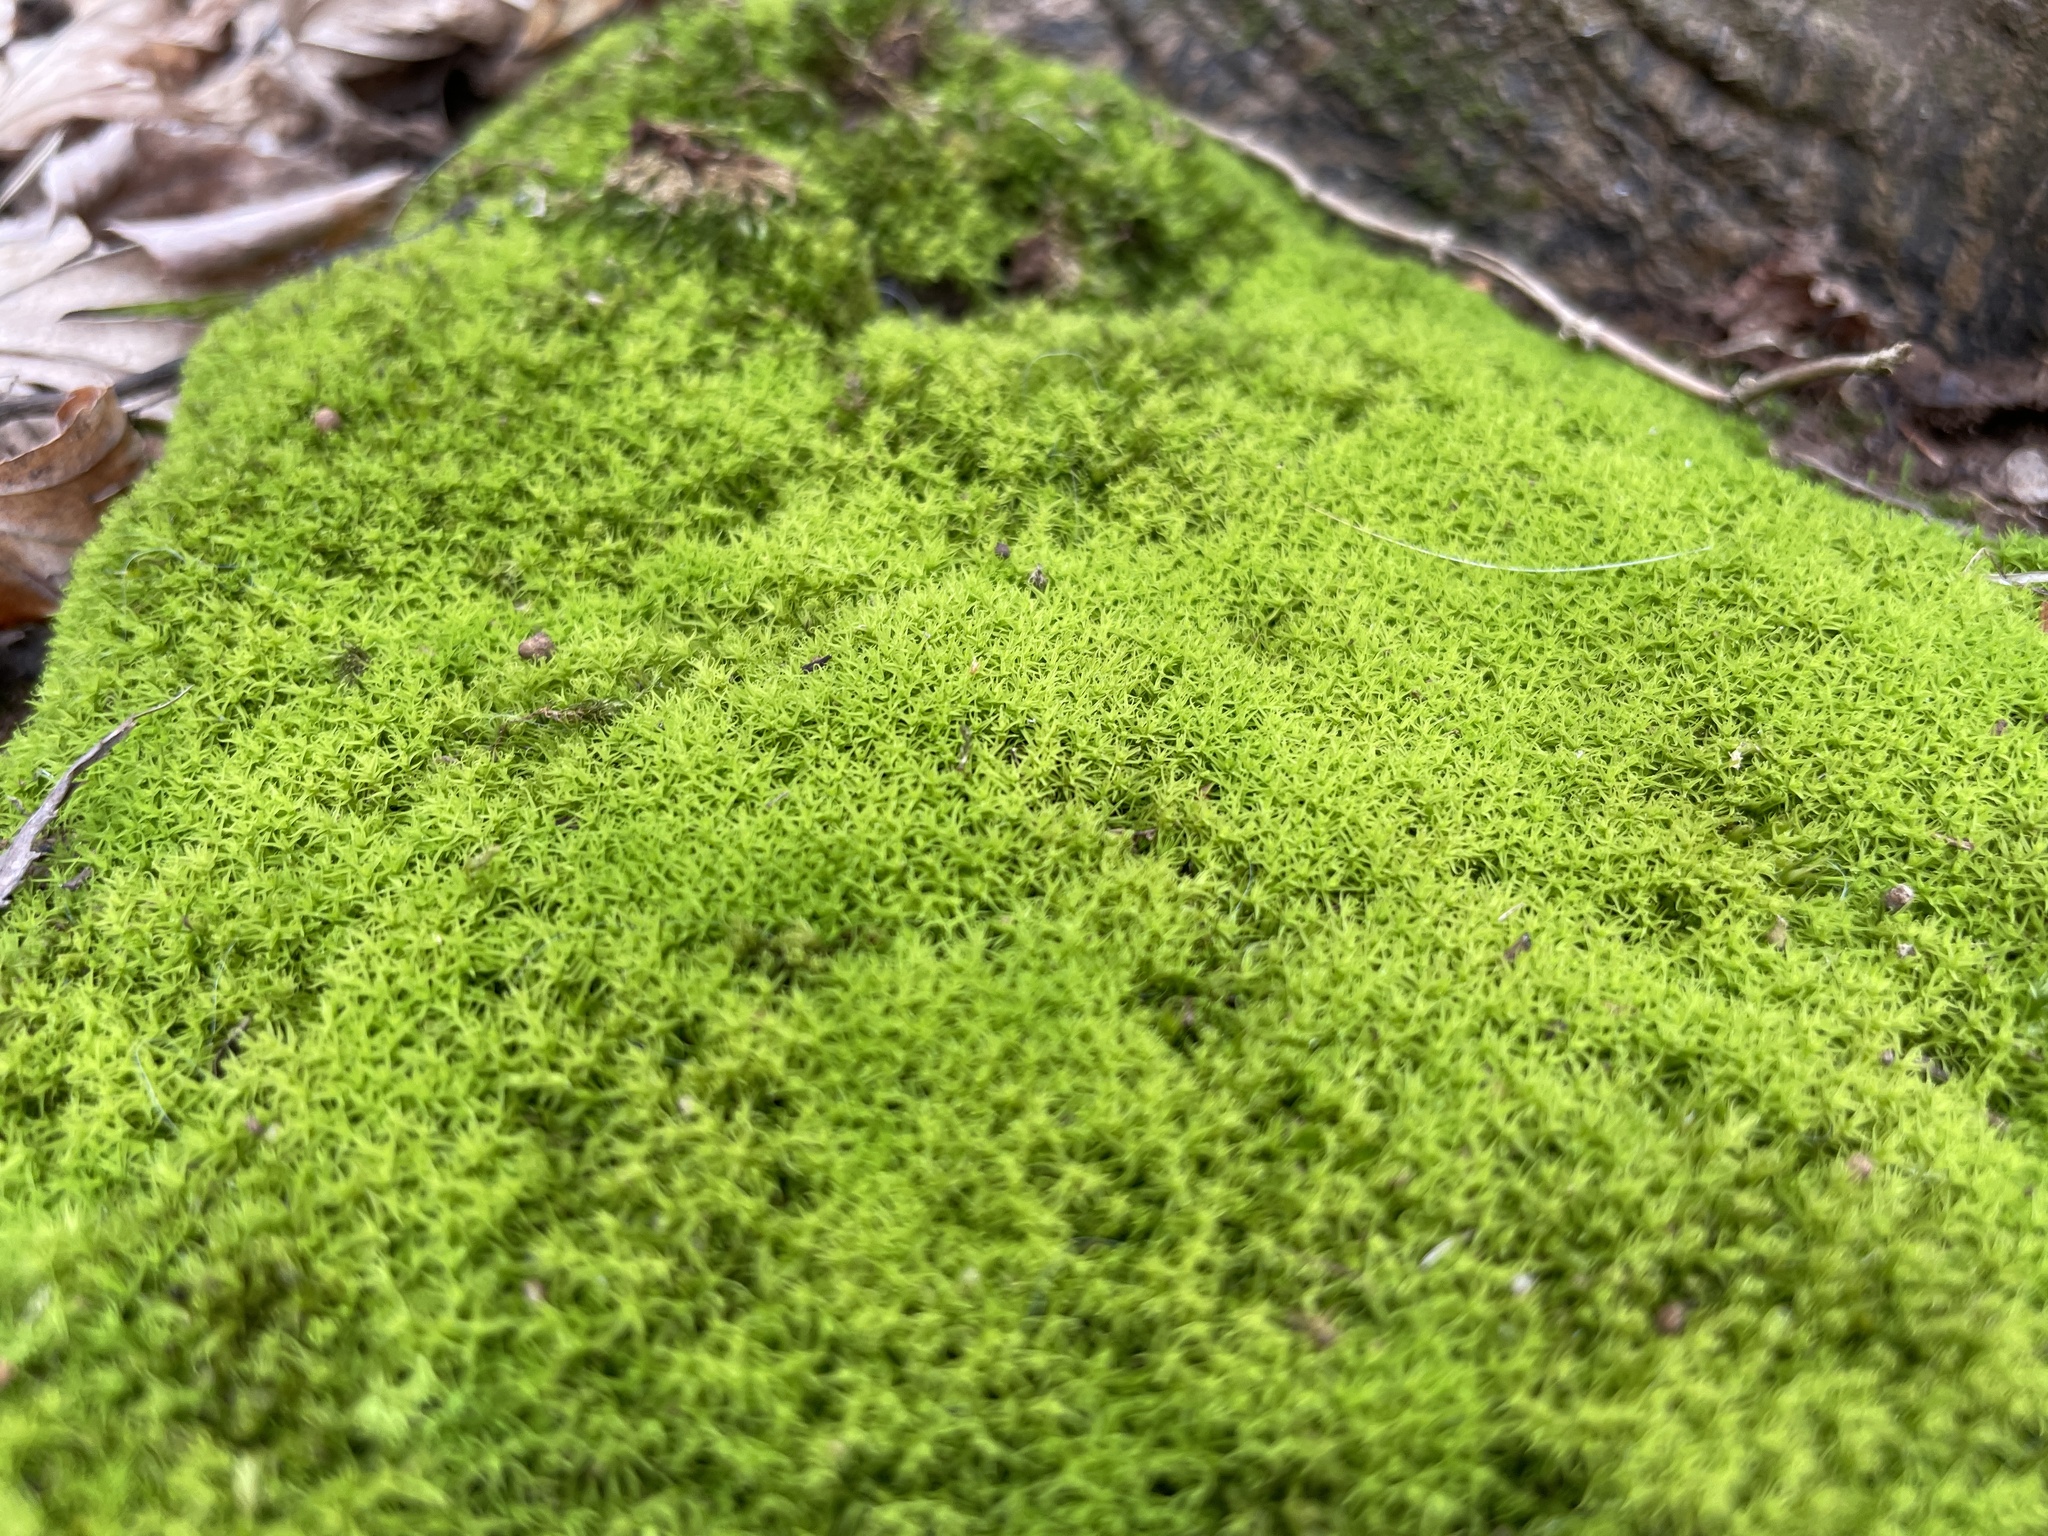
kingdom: Plantae
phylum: Bryophyta
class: Bryopsida
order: Pottiales
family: Pottiaceae
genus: Weissia
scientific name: Weissia controversa
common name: Green-tufted stubble moss
